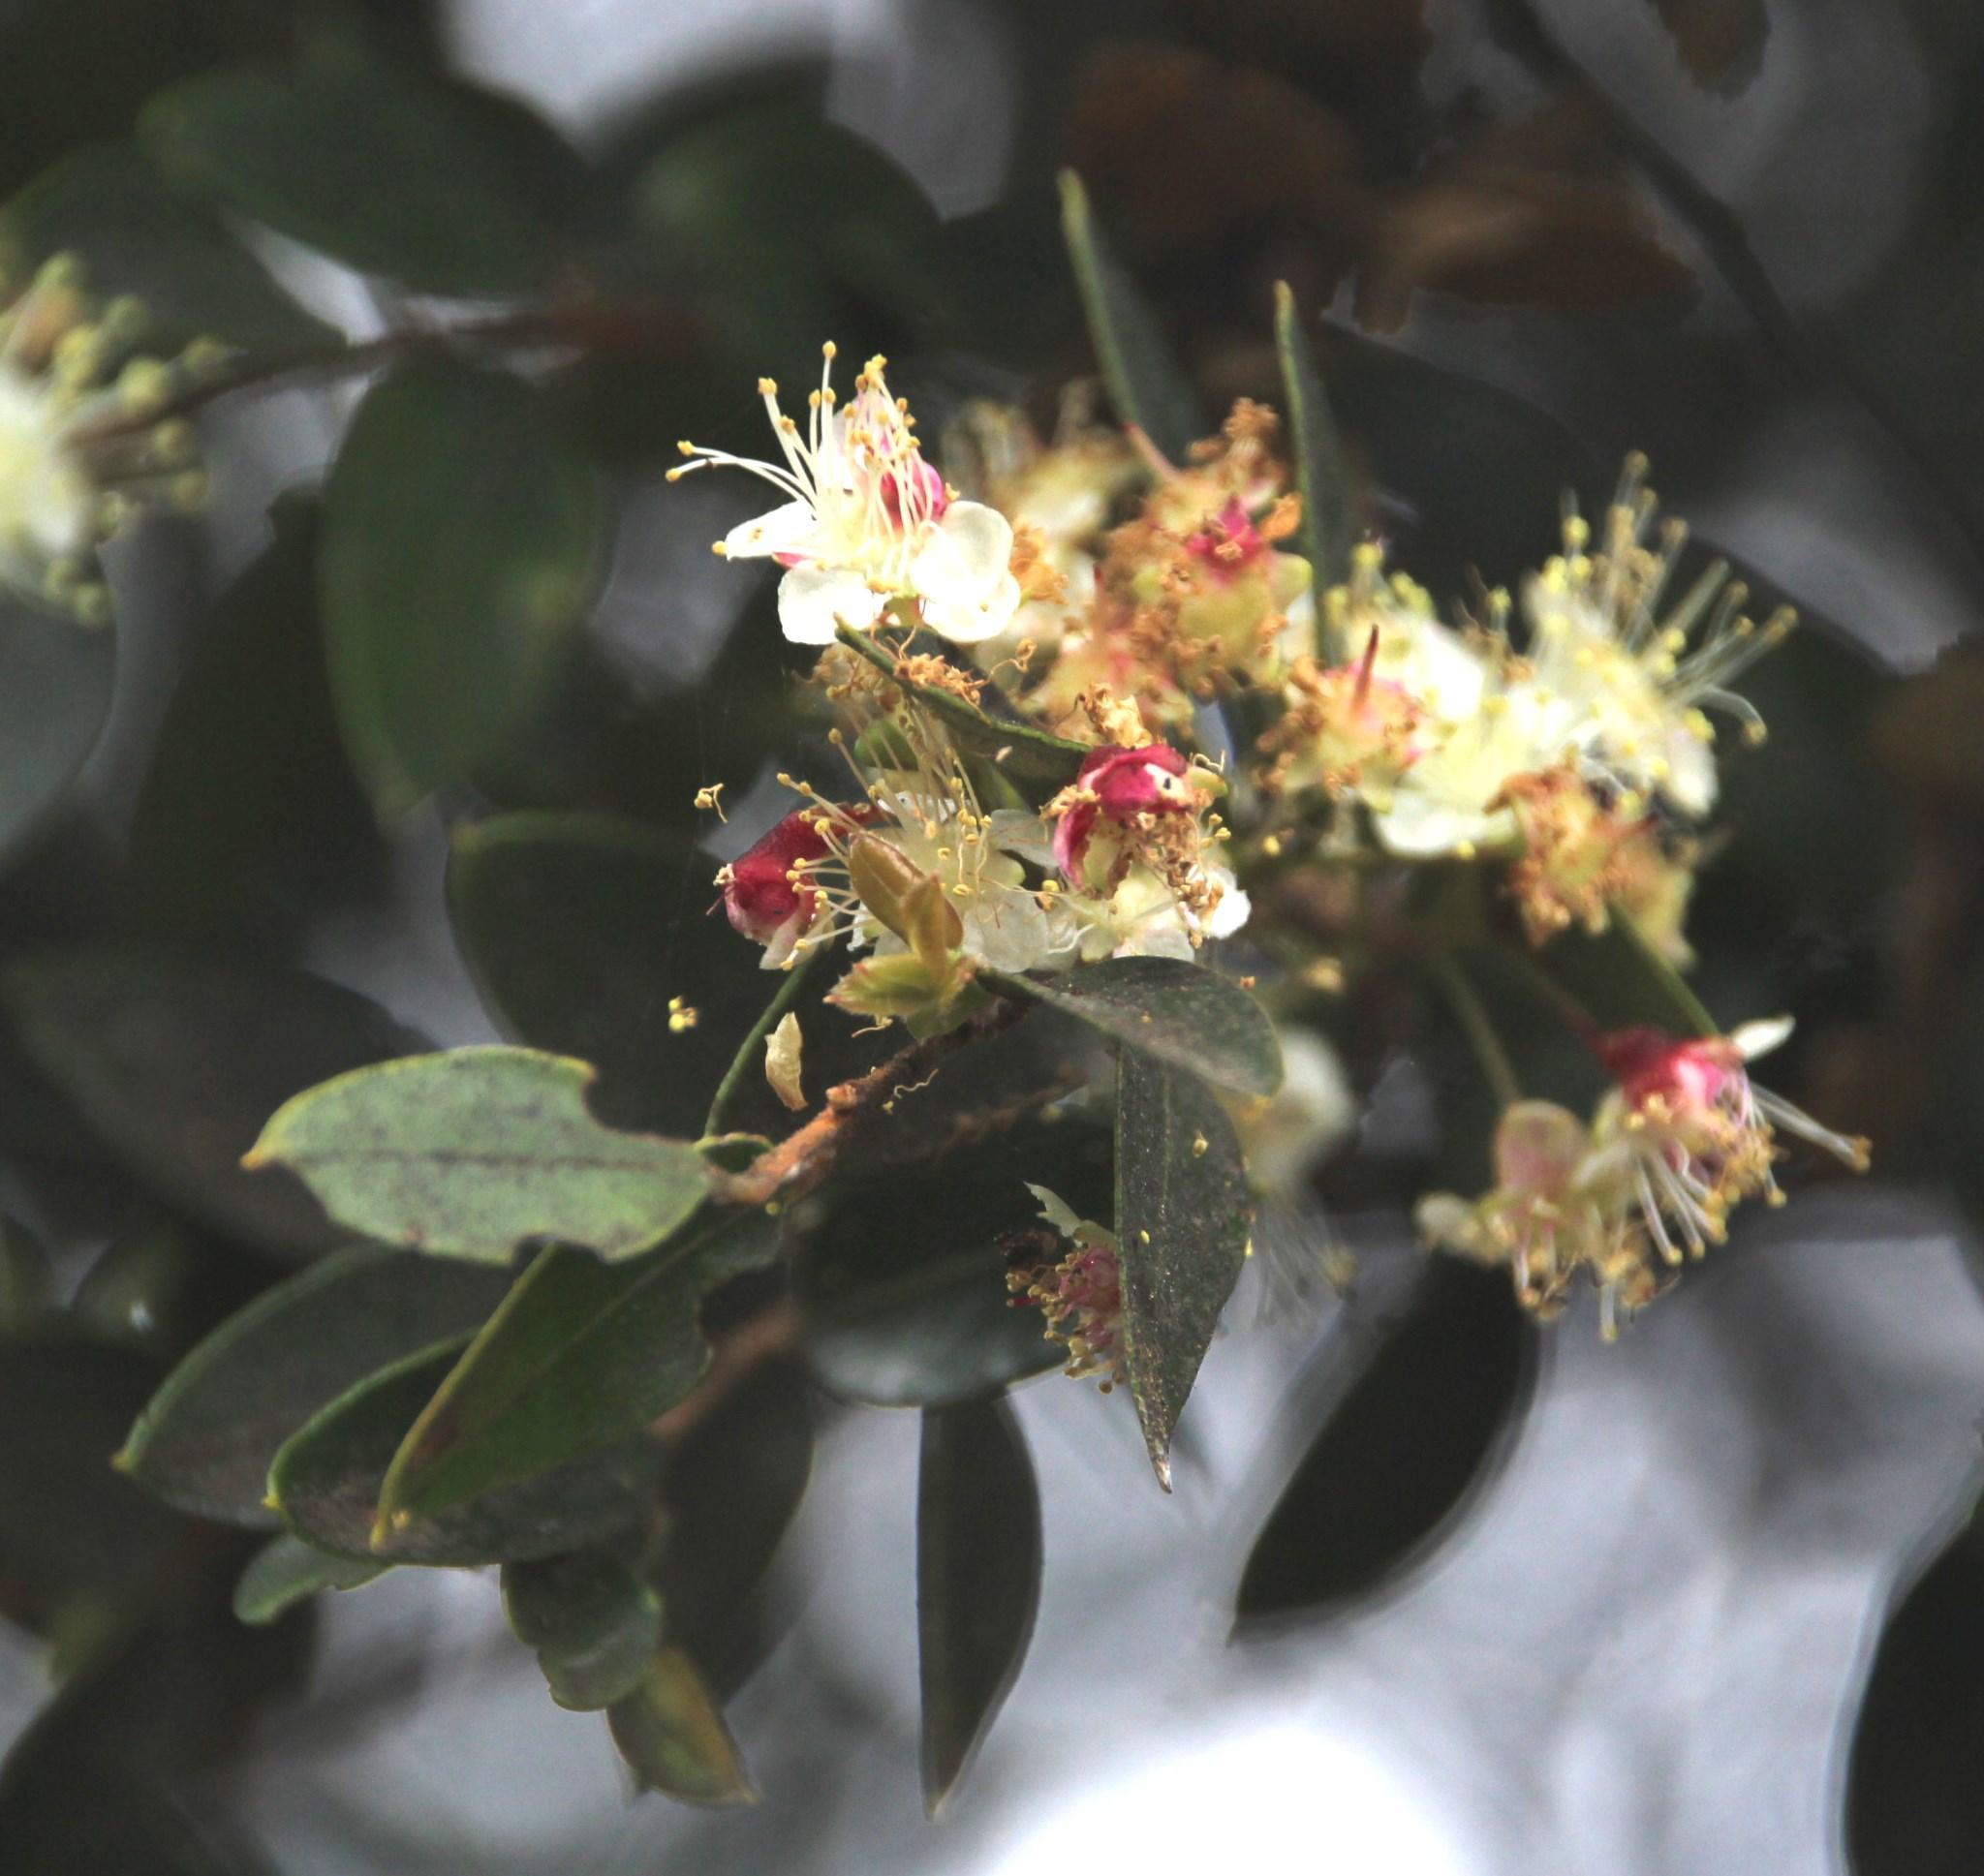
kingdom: Plantae
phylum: Tracheophyta
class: Magnoliopsida
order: Myrtales
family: Myrtaceae
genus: Amomyrtus
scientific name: Amomyrtus luma
